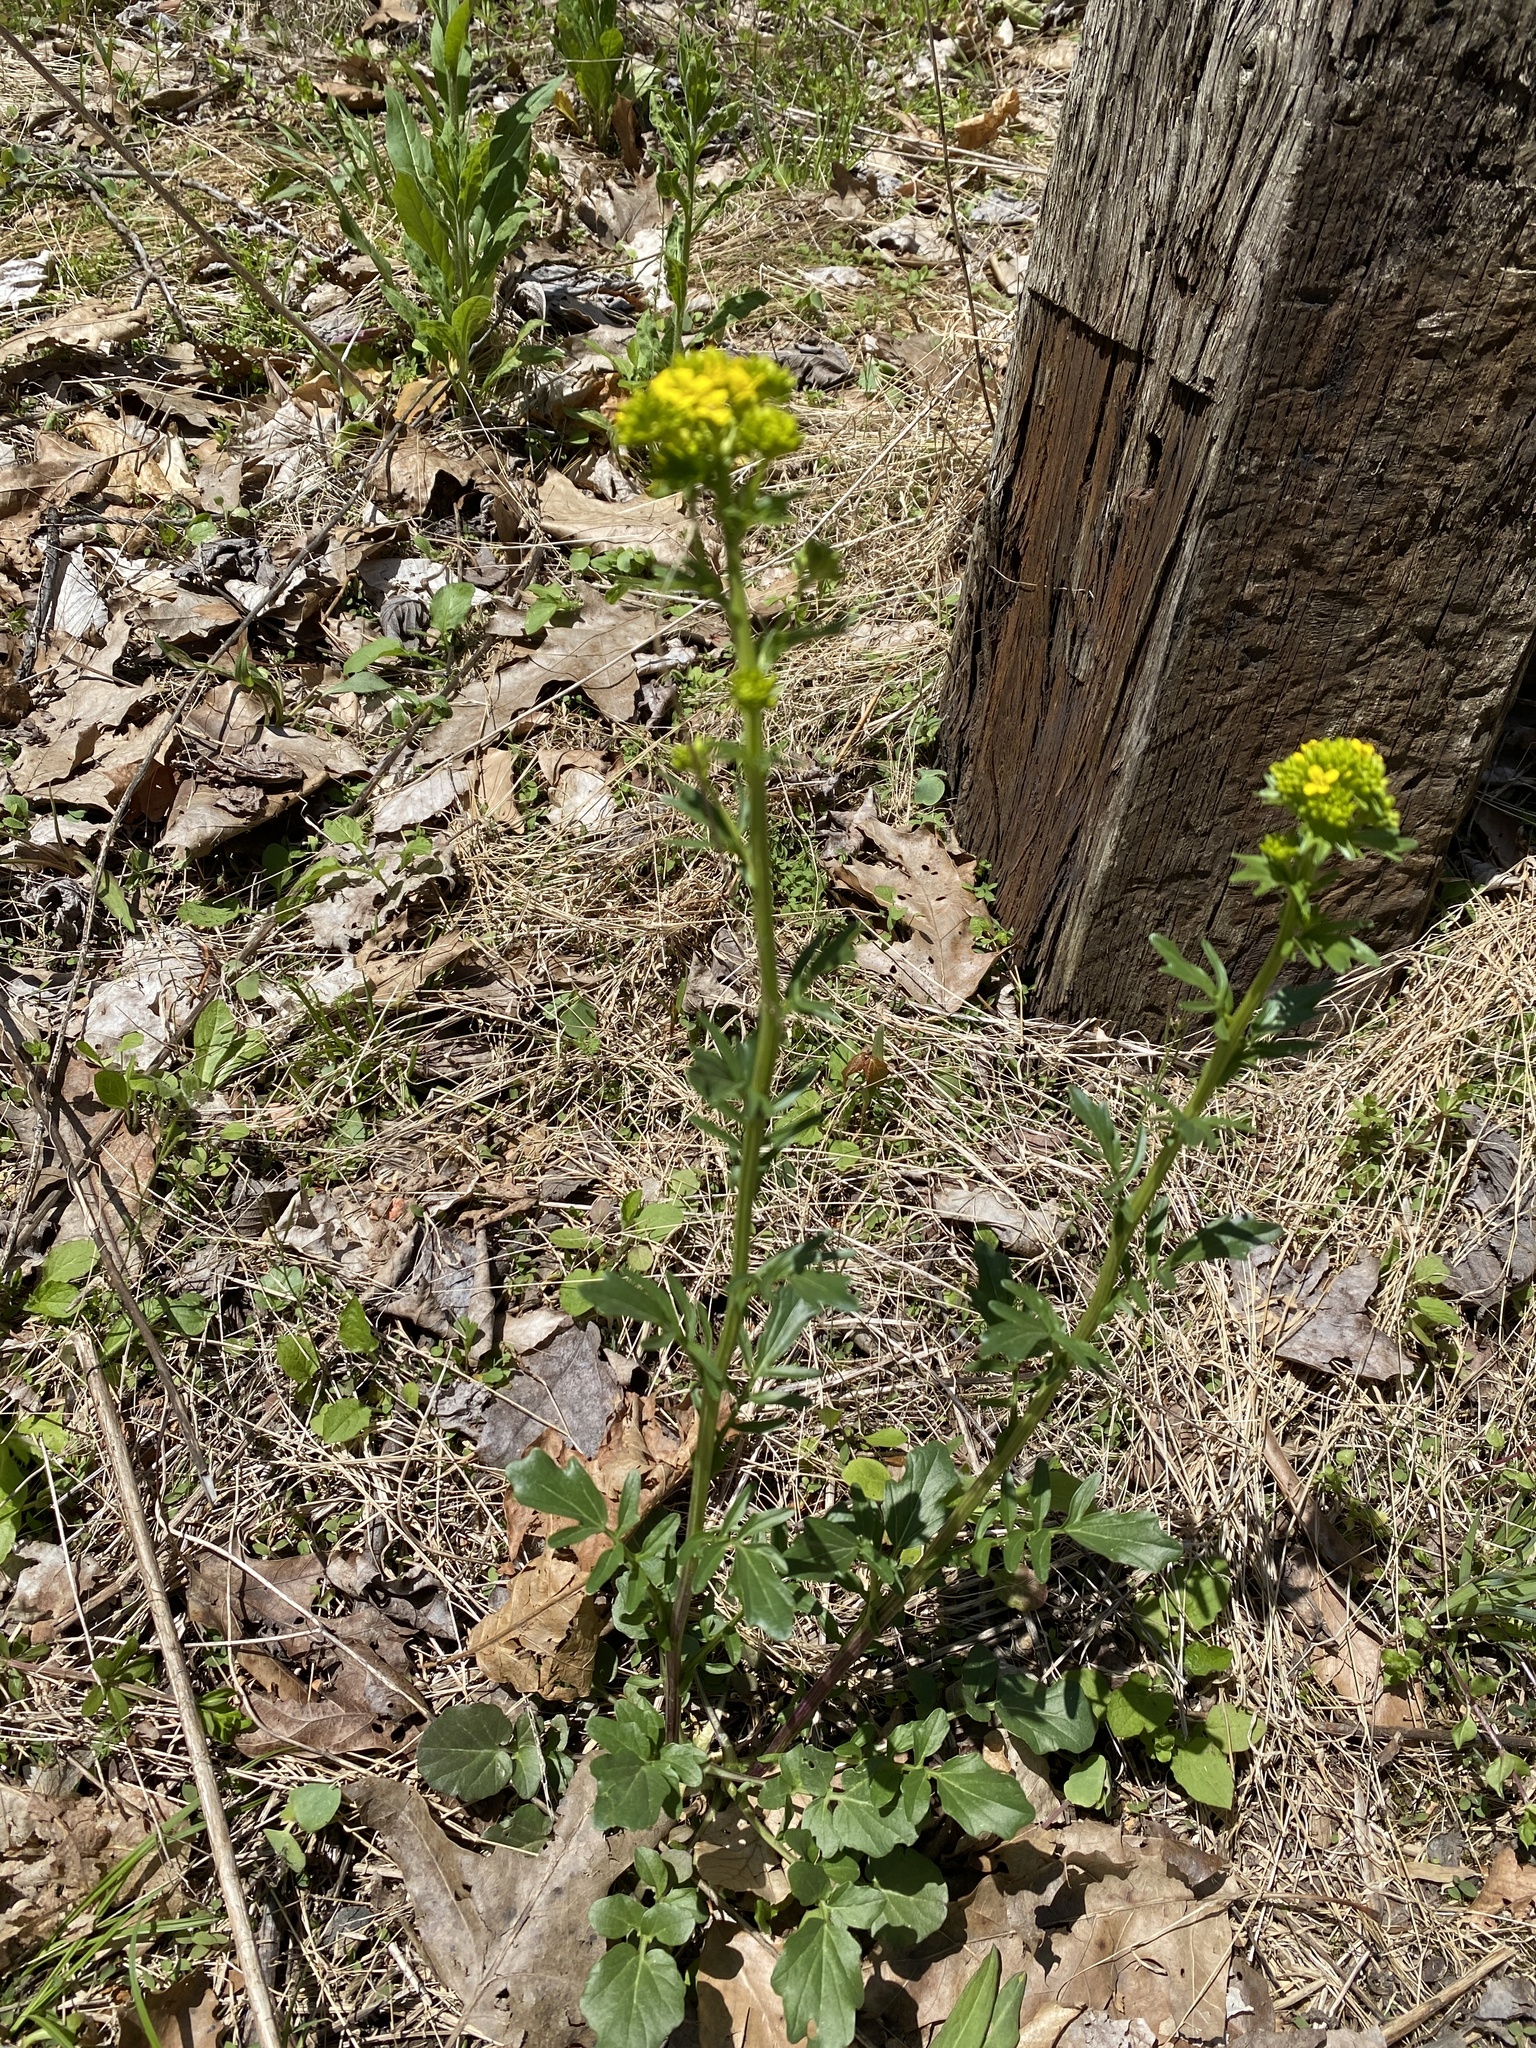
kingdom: Plantae
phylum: Tracheophyta
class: Magnoliopsida
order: Brassicales
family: Brassicaceae
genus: Barbarea
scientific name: Barbarea vulgaris
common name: Cressy-greens
